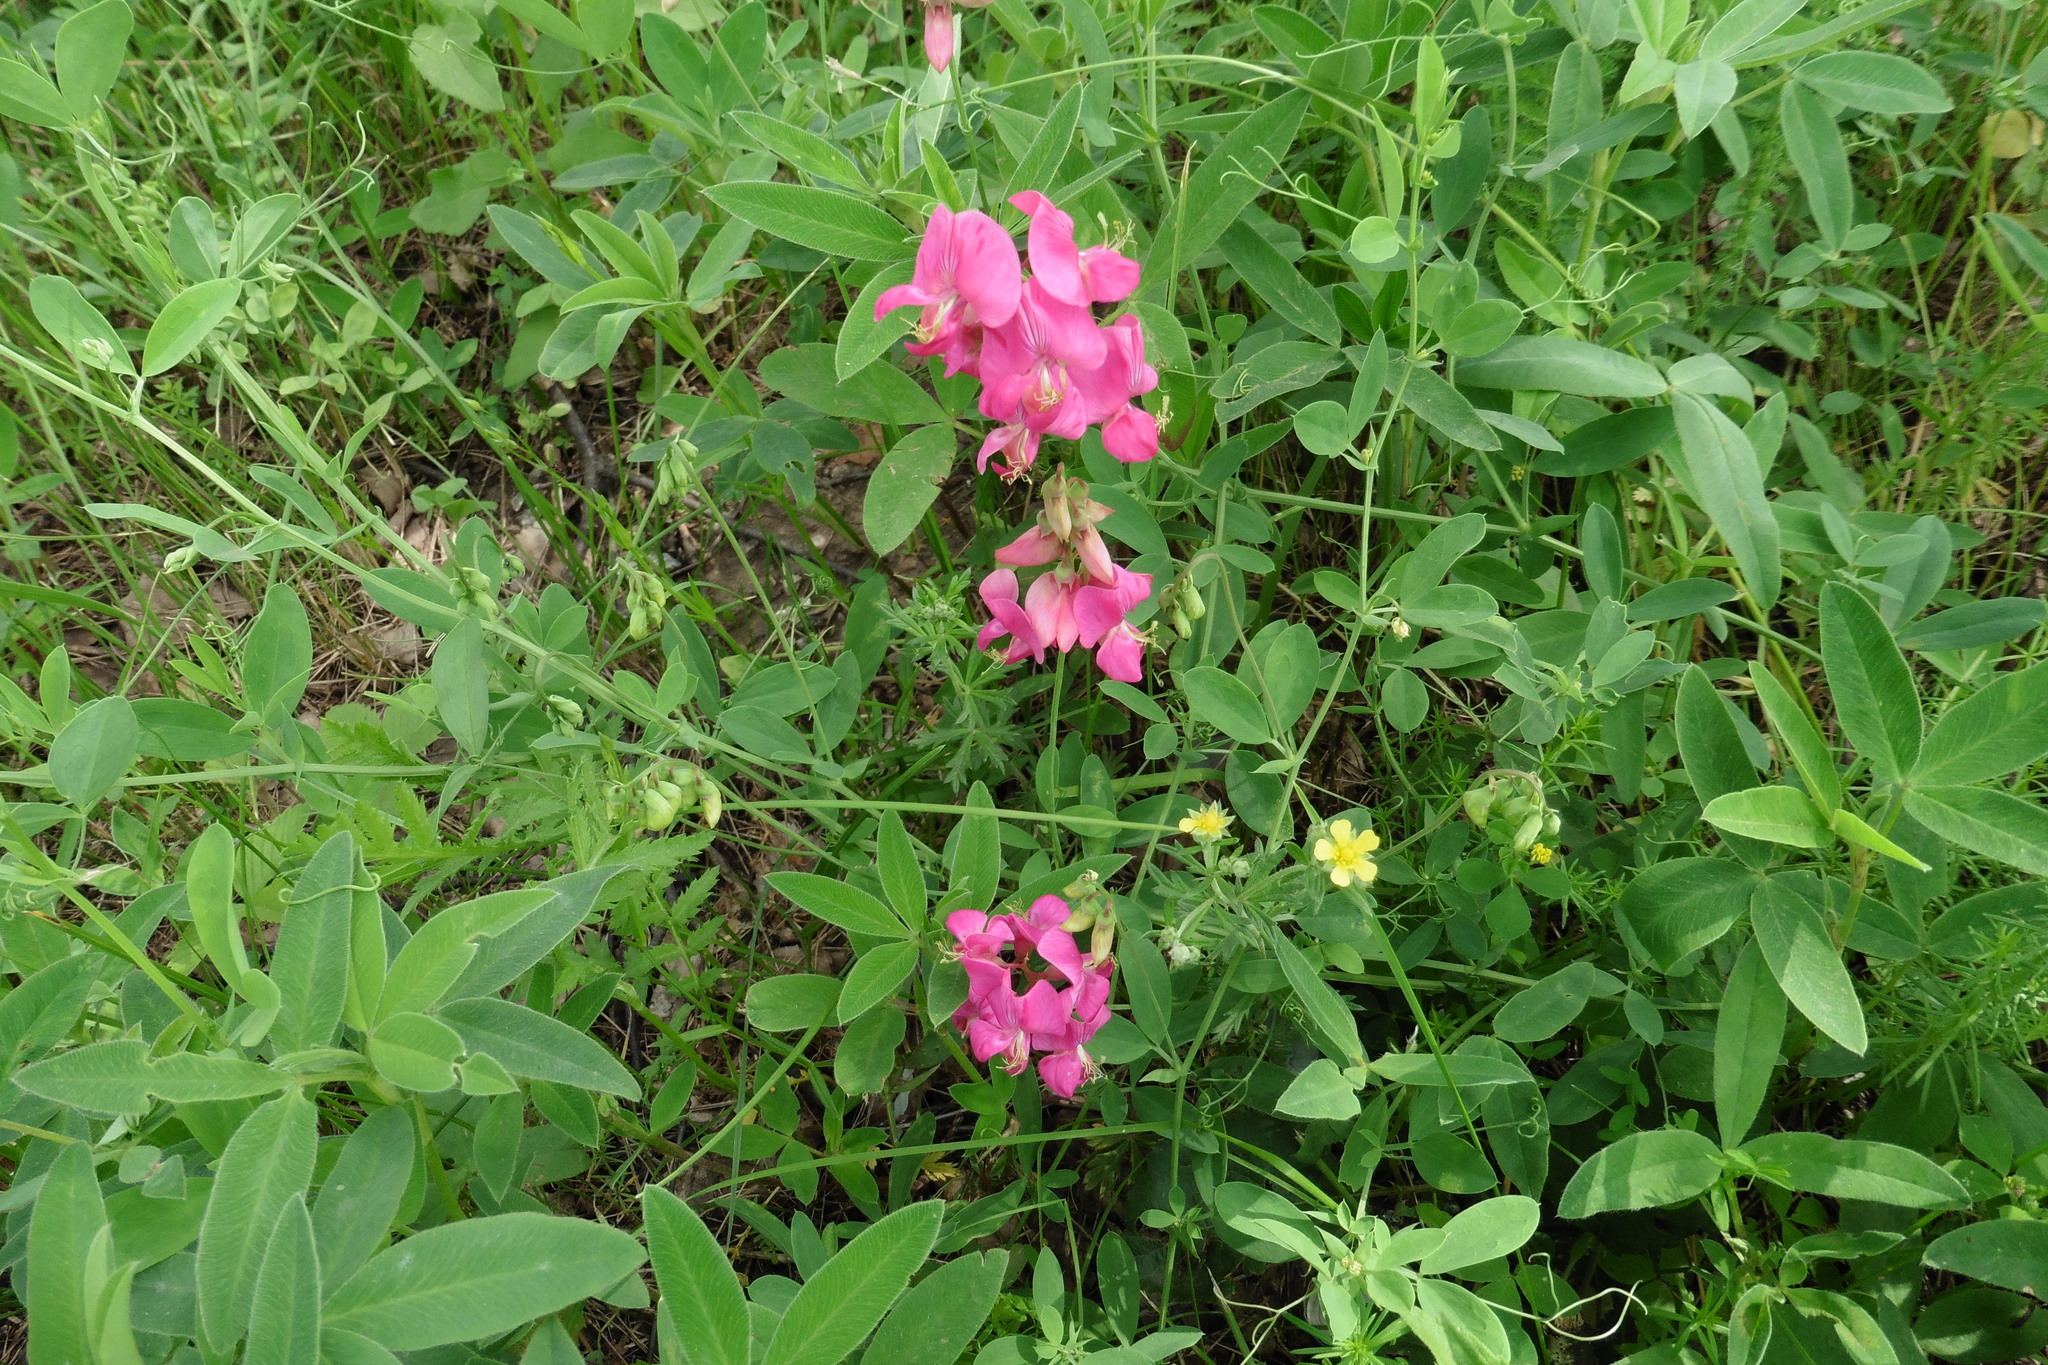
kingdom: Plantae
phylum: Tracheophyta
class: Magnoliopsida
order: Fabales
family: Fabaceae
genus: Lathyrus
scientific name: Lathyrus tuberosus
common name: Tuberous pea
